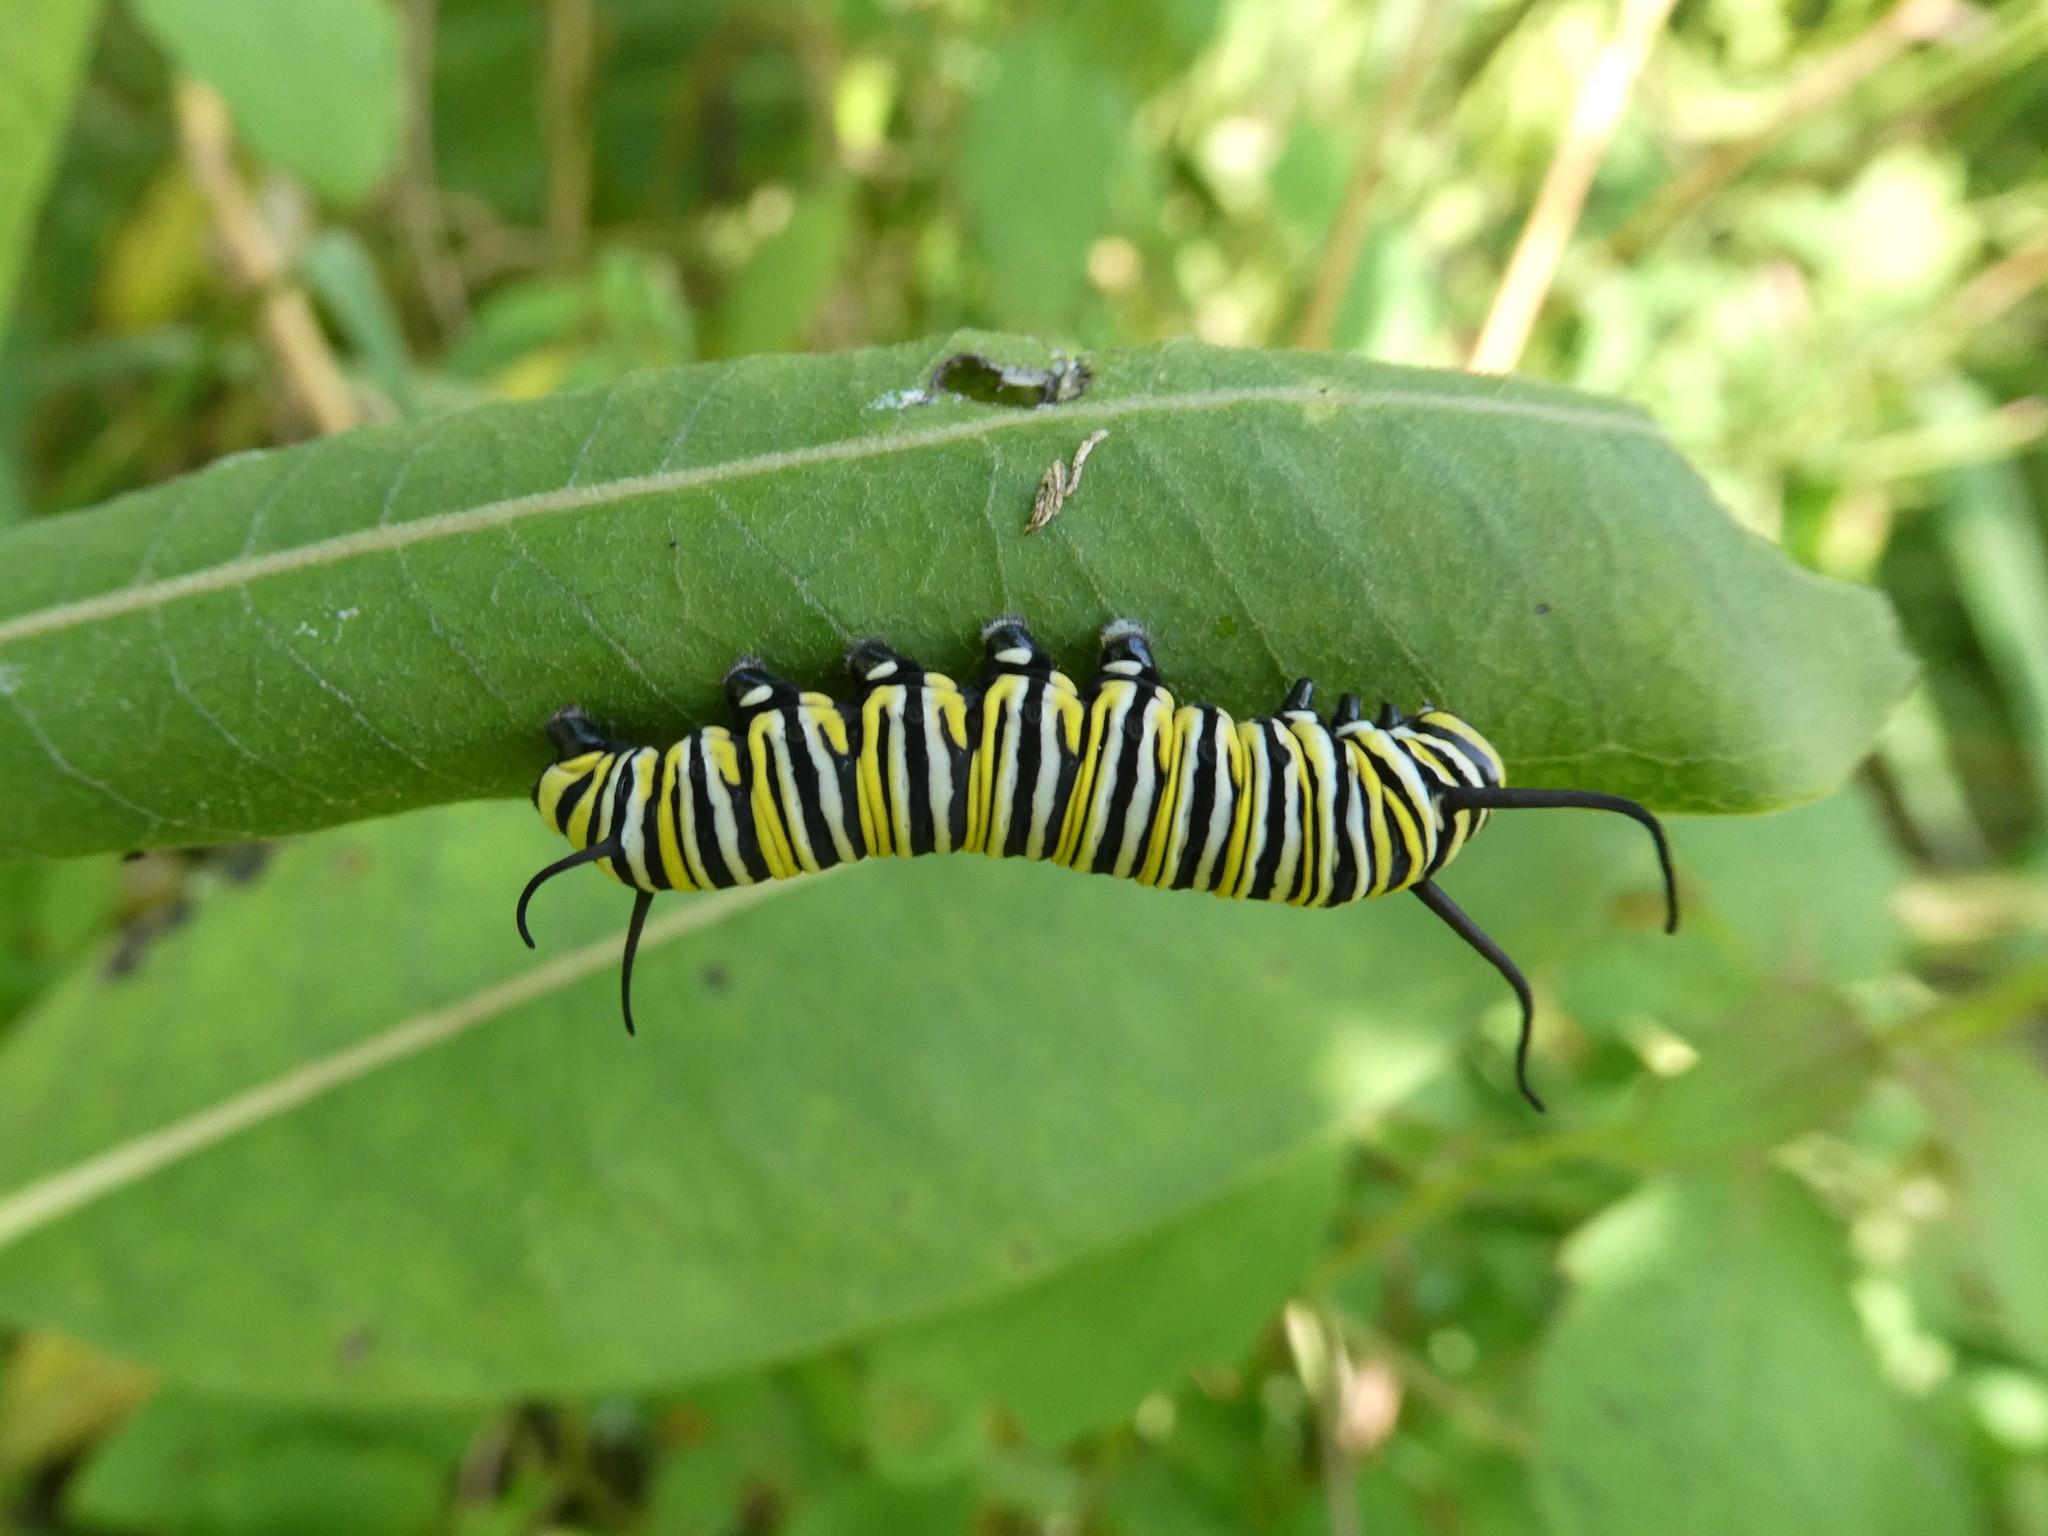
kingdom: Animalia
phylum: Arthropoda
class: Insecta
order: Lepidoptera
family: Nymphalidae
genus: Danaus
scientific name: Danaus plexippus
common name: Monarch
